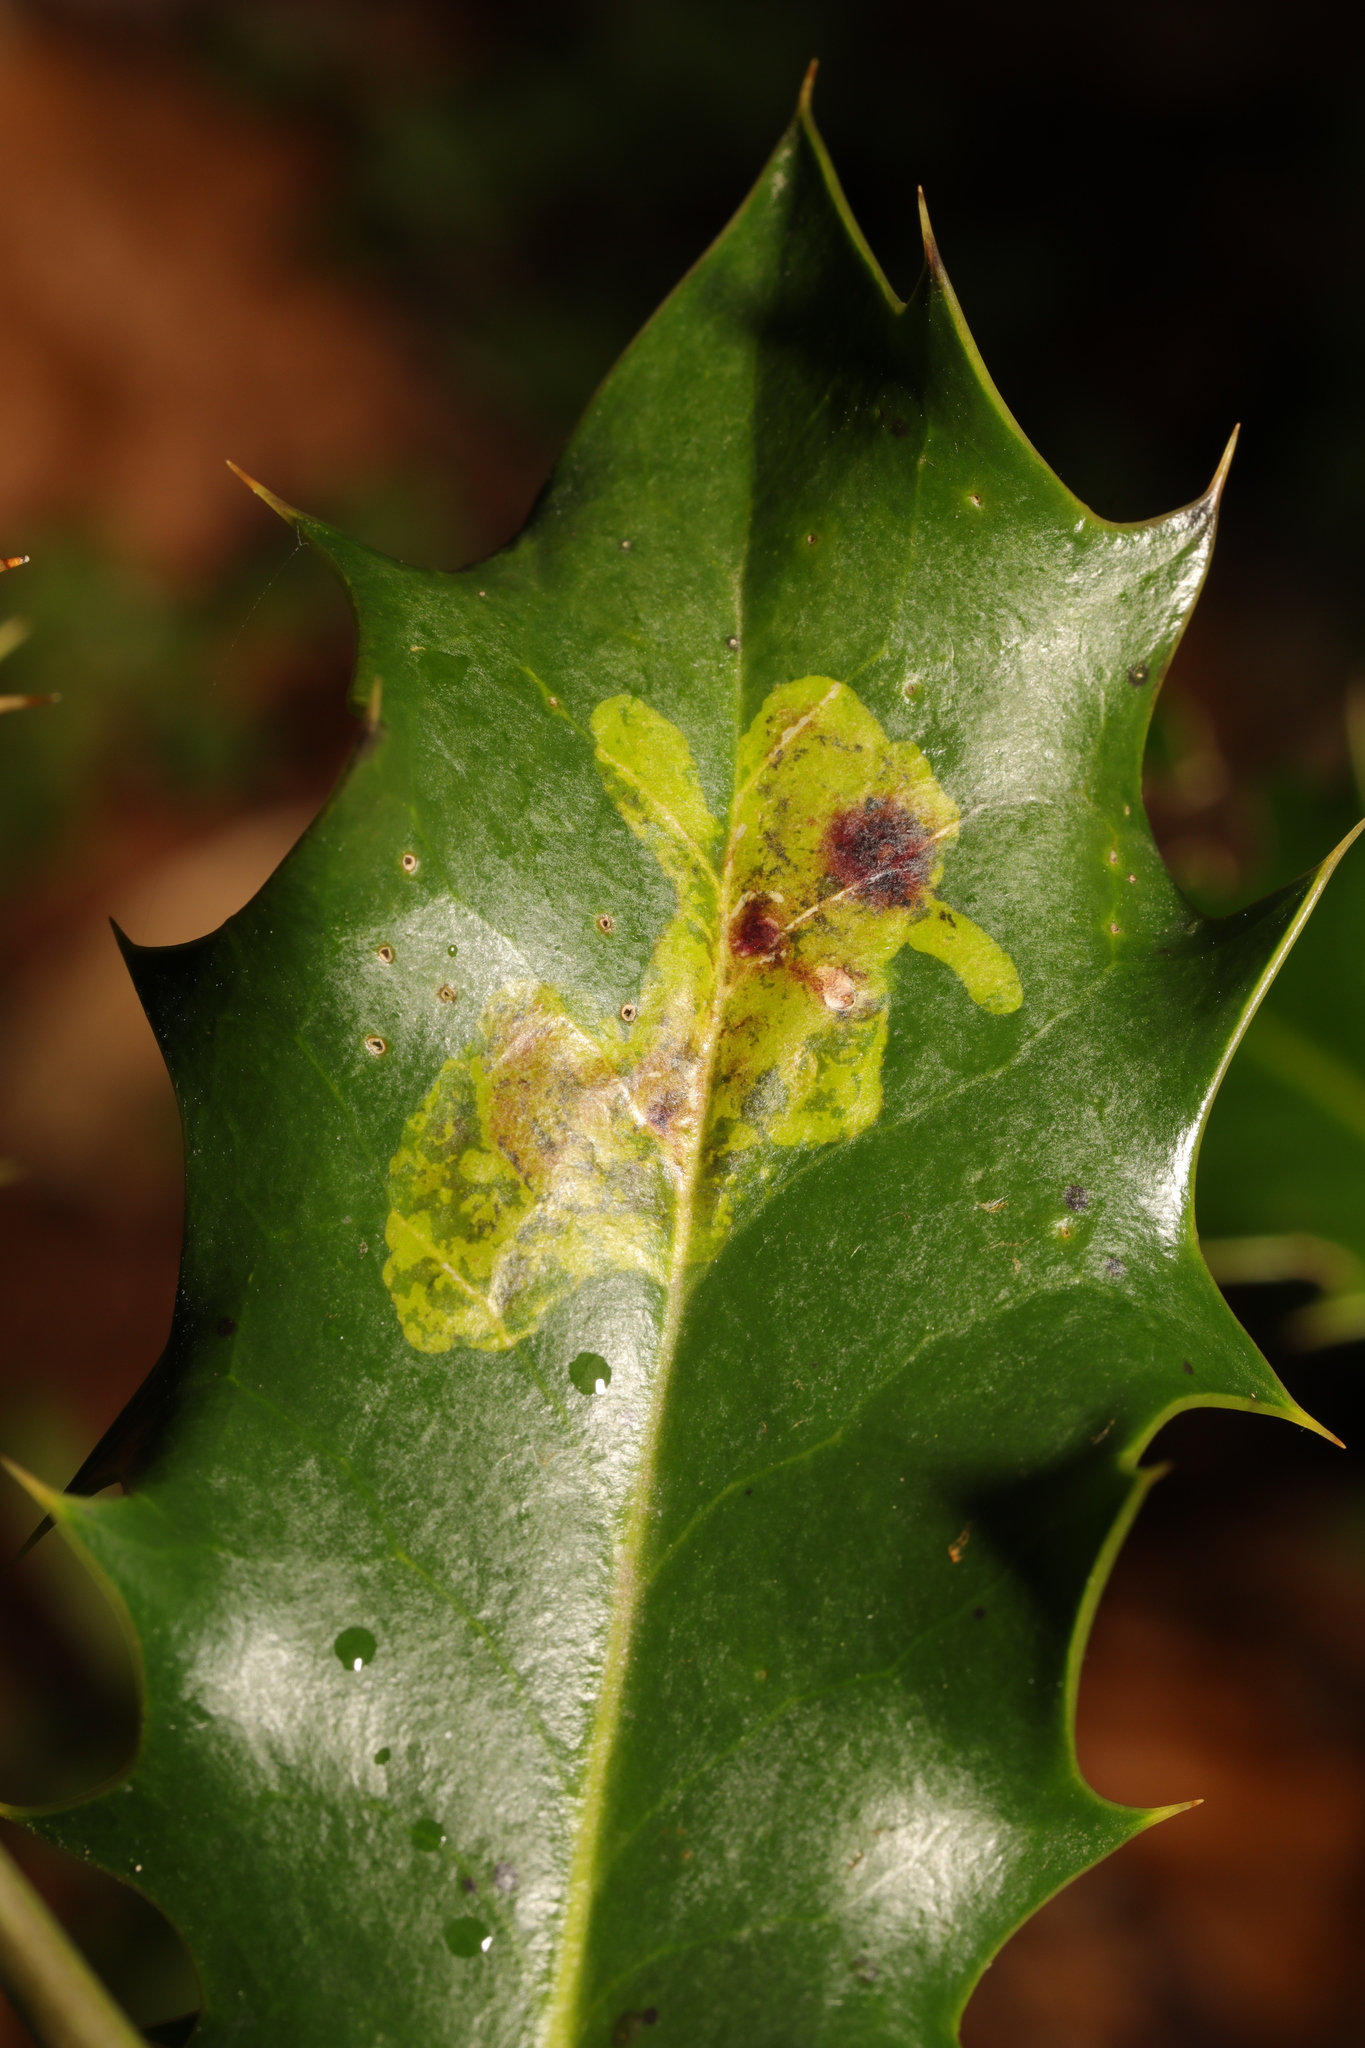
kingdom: Animalia
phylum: Arthropoda
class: Insecta
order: Diptera
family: Agromyzidae
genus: Phytomyza
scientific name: Phytomyza ilicis
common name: Holly leafminer
